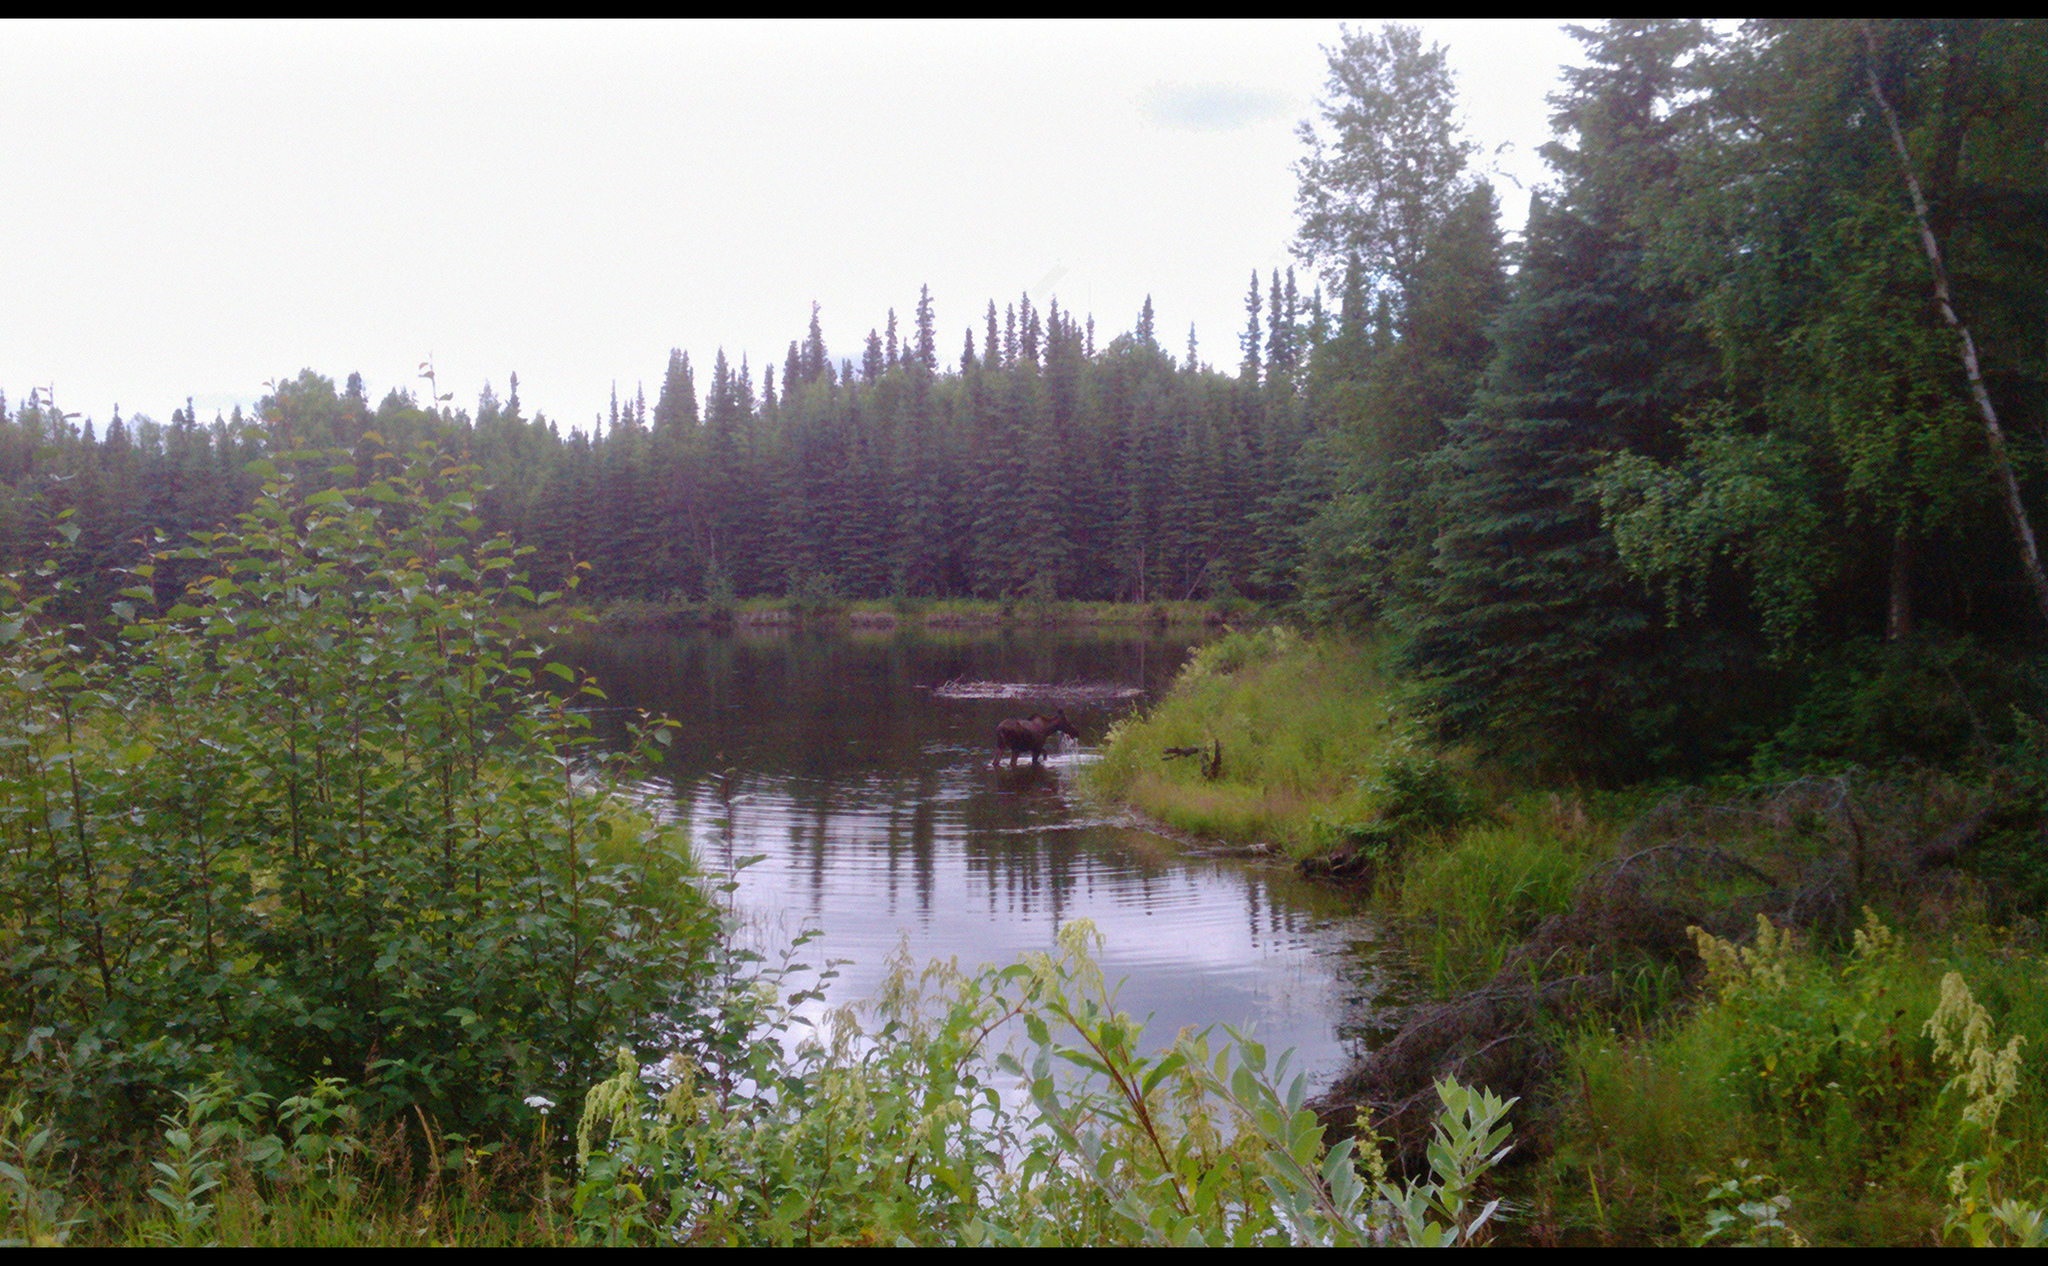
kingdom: Animalia
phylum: Chordata
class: Mammalia
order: Artiodactyla
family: Cervidae
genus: Alces
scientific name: Alces alces
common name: Moose
